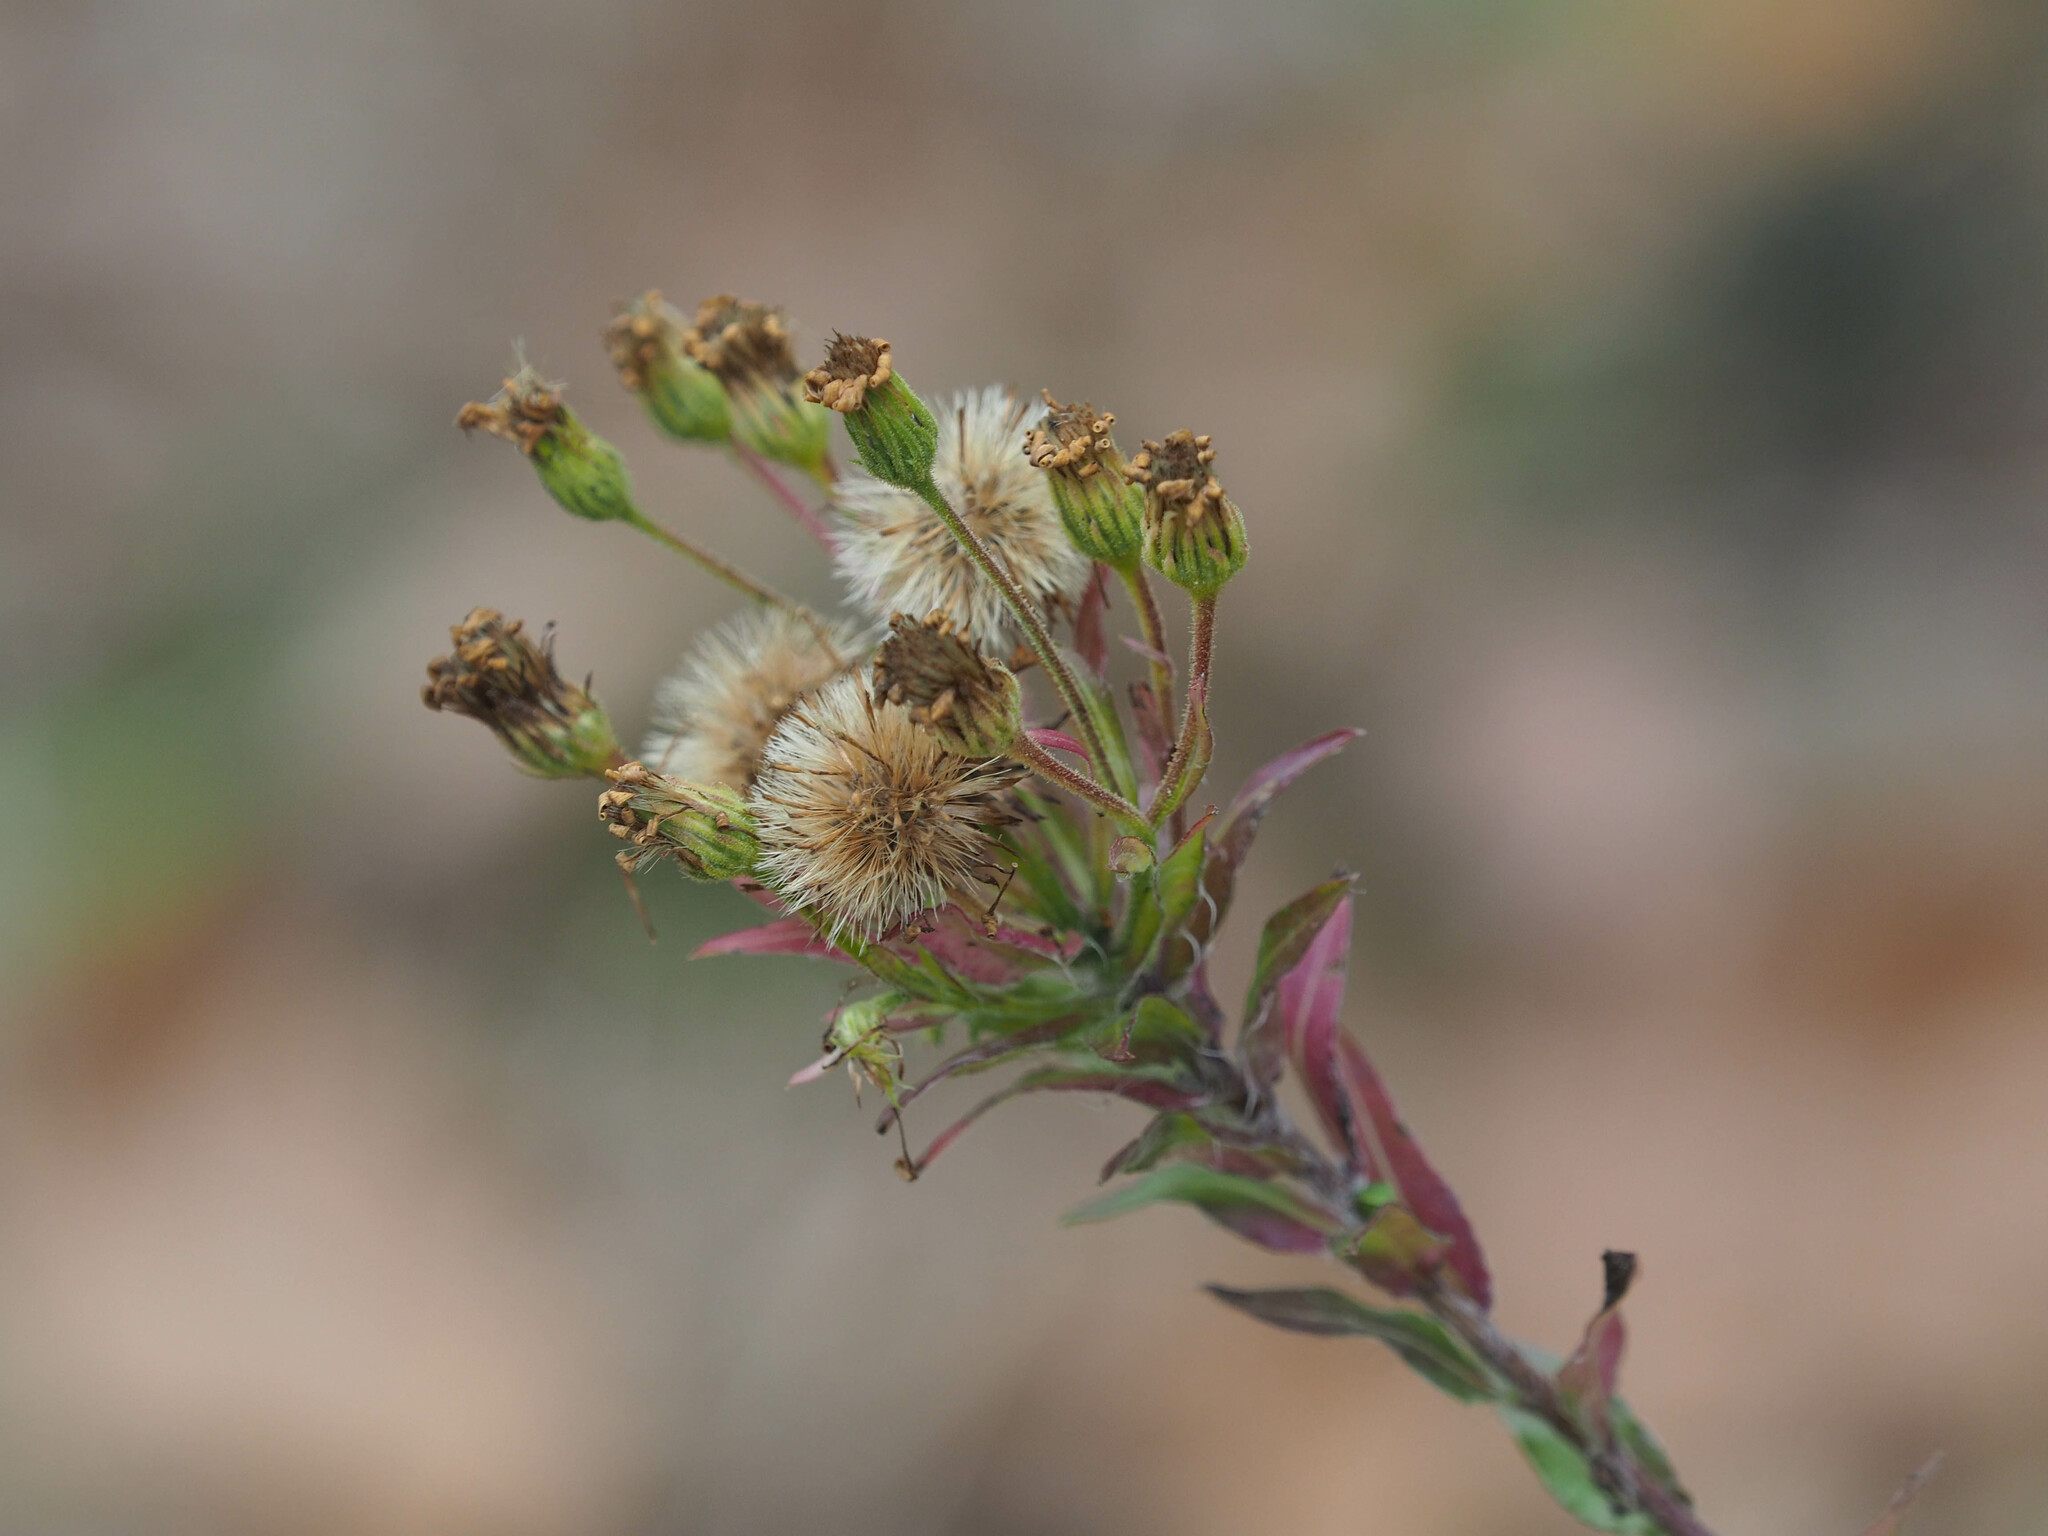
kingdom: Plantae
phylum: Tracheophyta
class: Magnoliopsida
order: Asterales
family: Asteraceae
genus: Chrysopsis
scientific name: Chrysopsis mariana
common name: Maryland golden-aster
